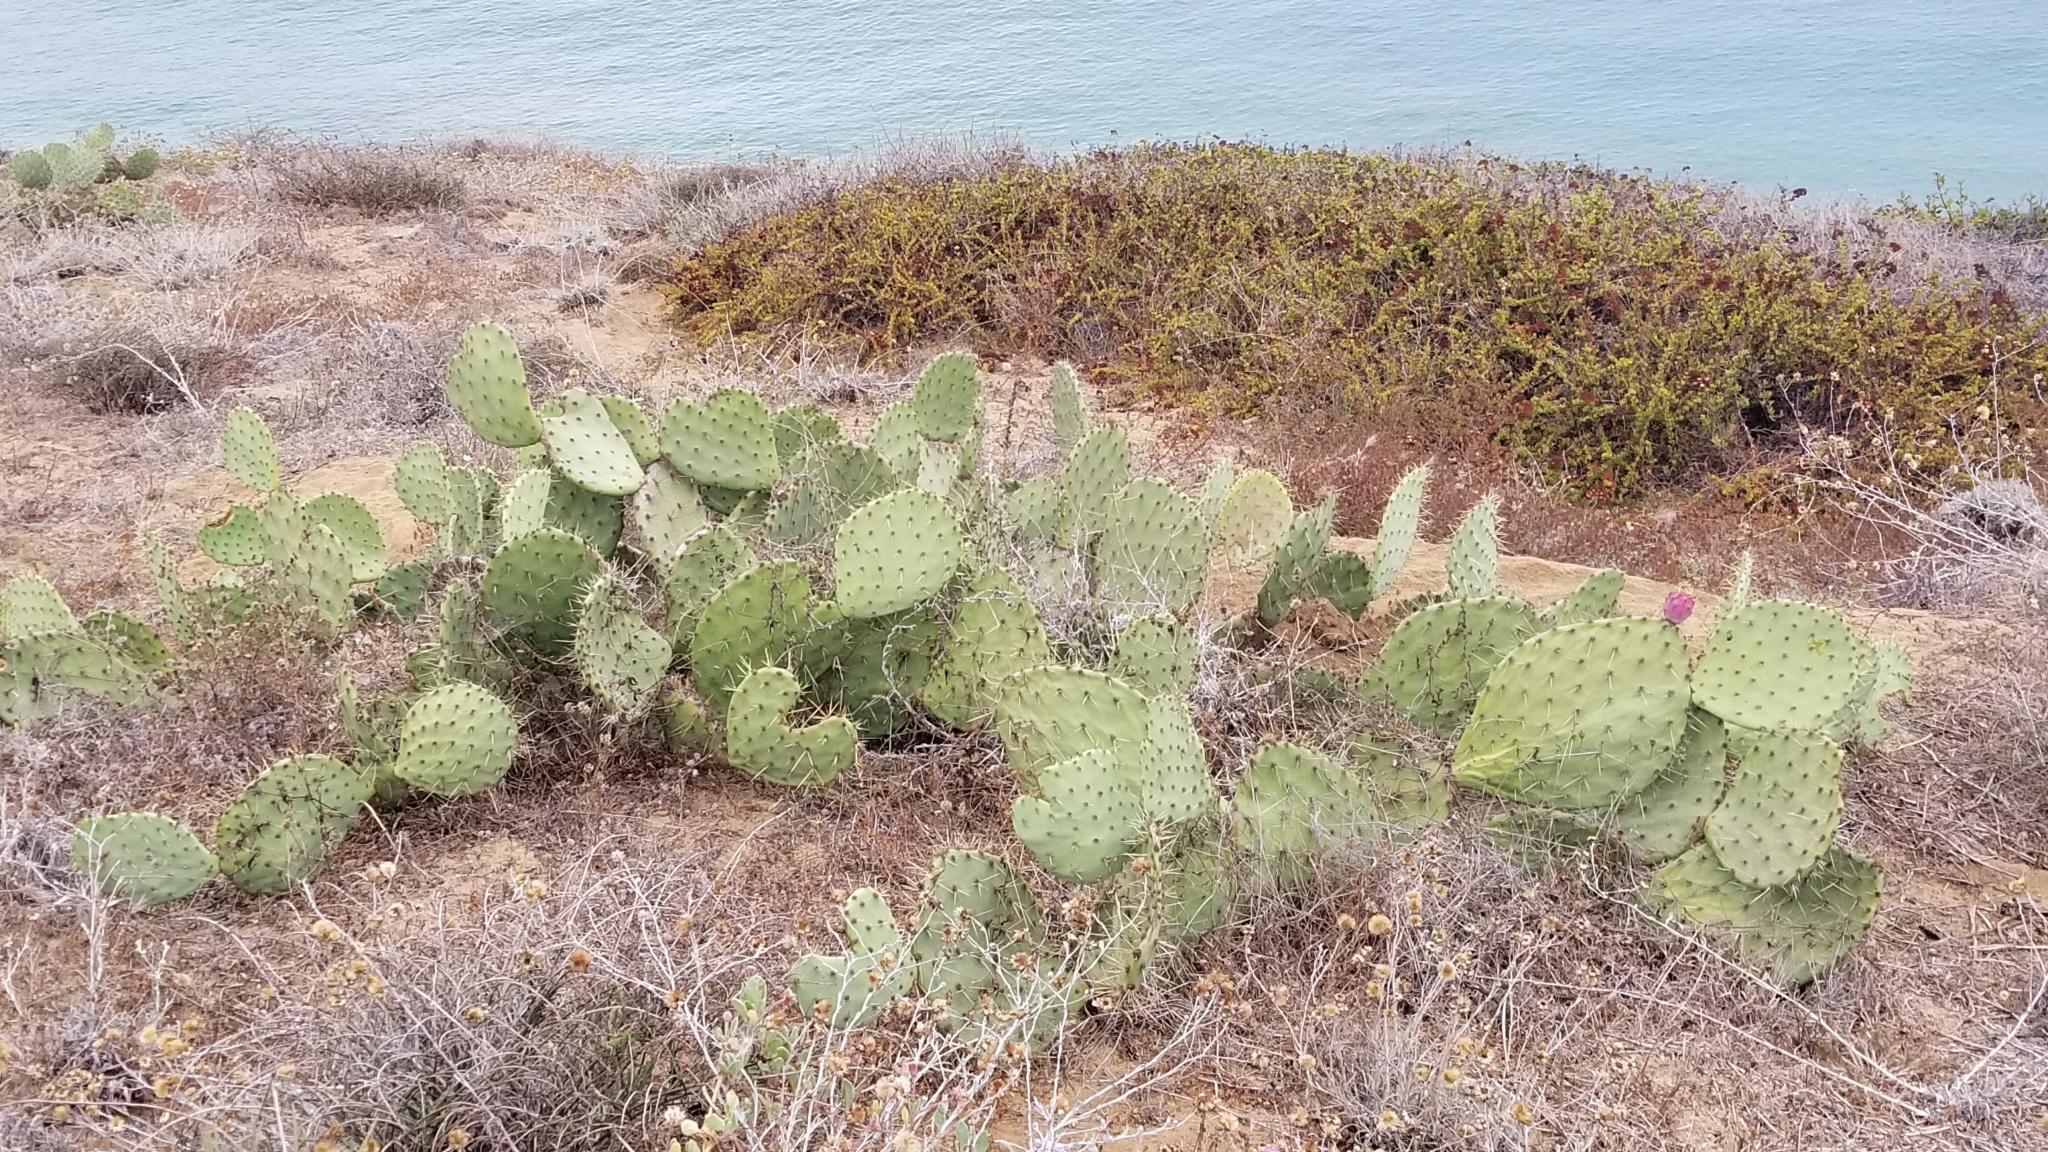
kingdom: Plantae
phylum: Tracheophyta
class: Magnoliopsida
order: Caryophyllales
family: Cactaceae
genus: Opuntia
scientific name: Opuntia littoralis
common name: Coastal prickly-pear
